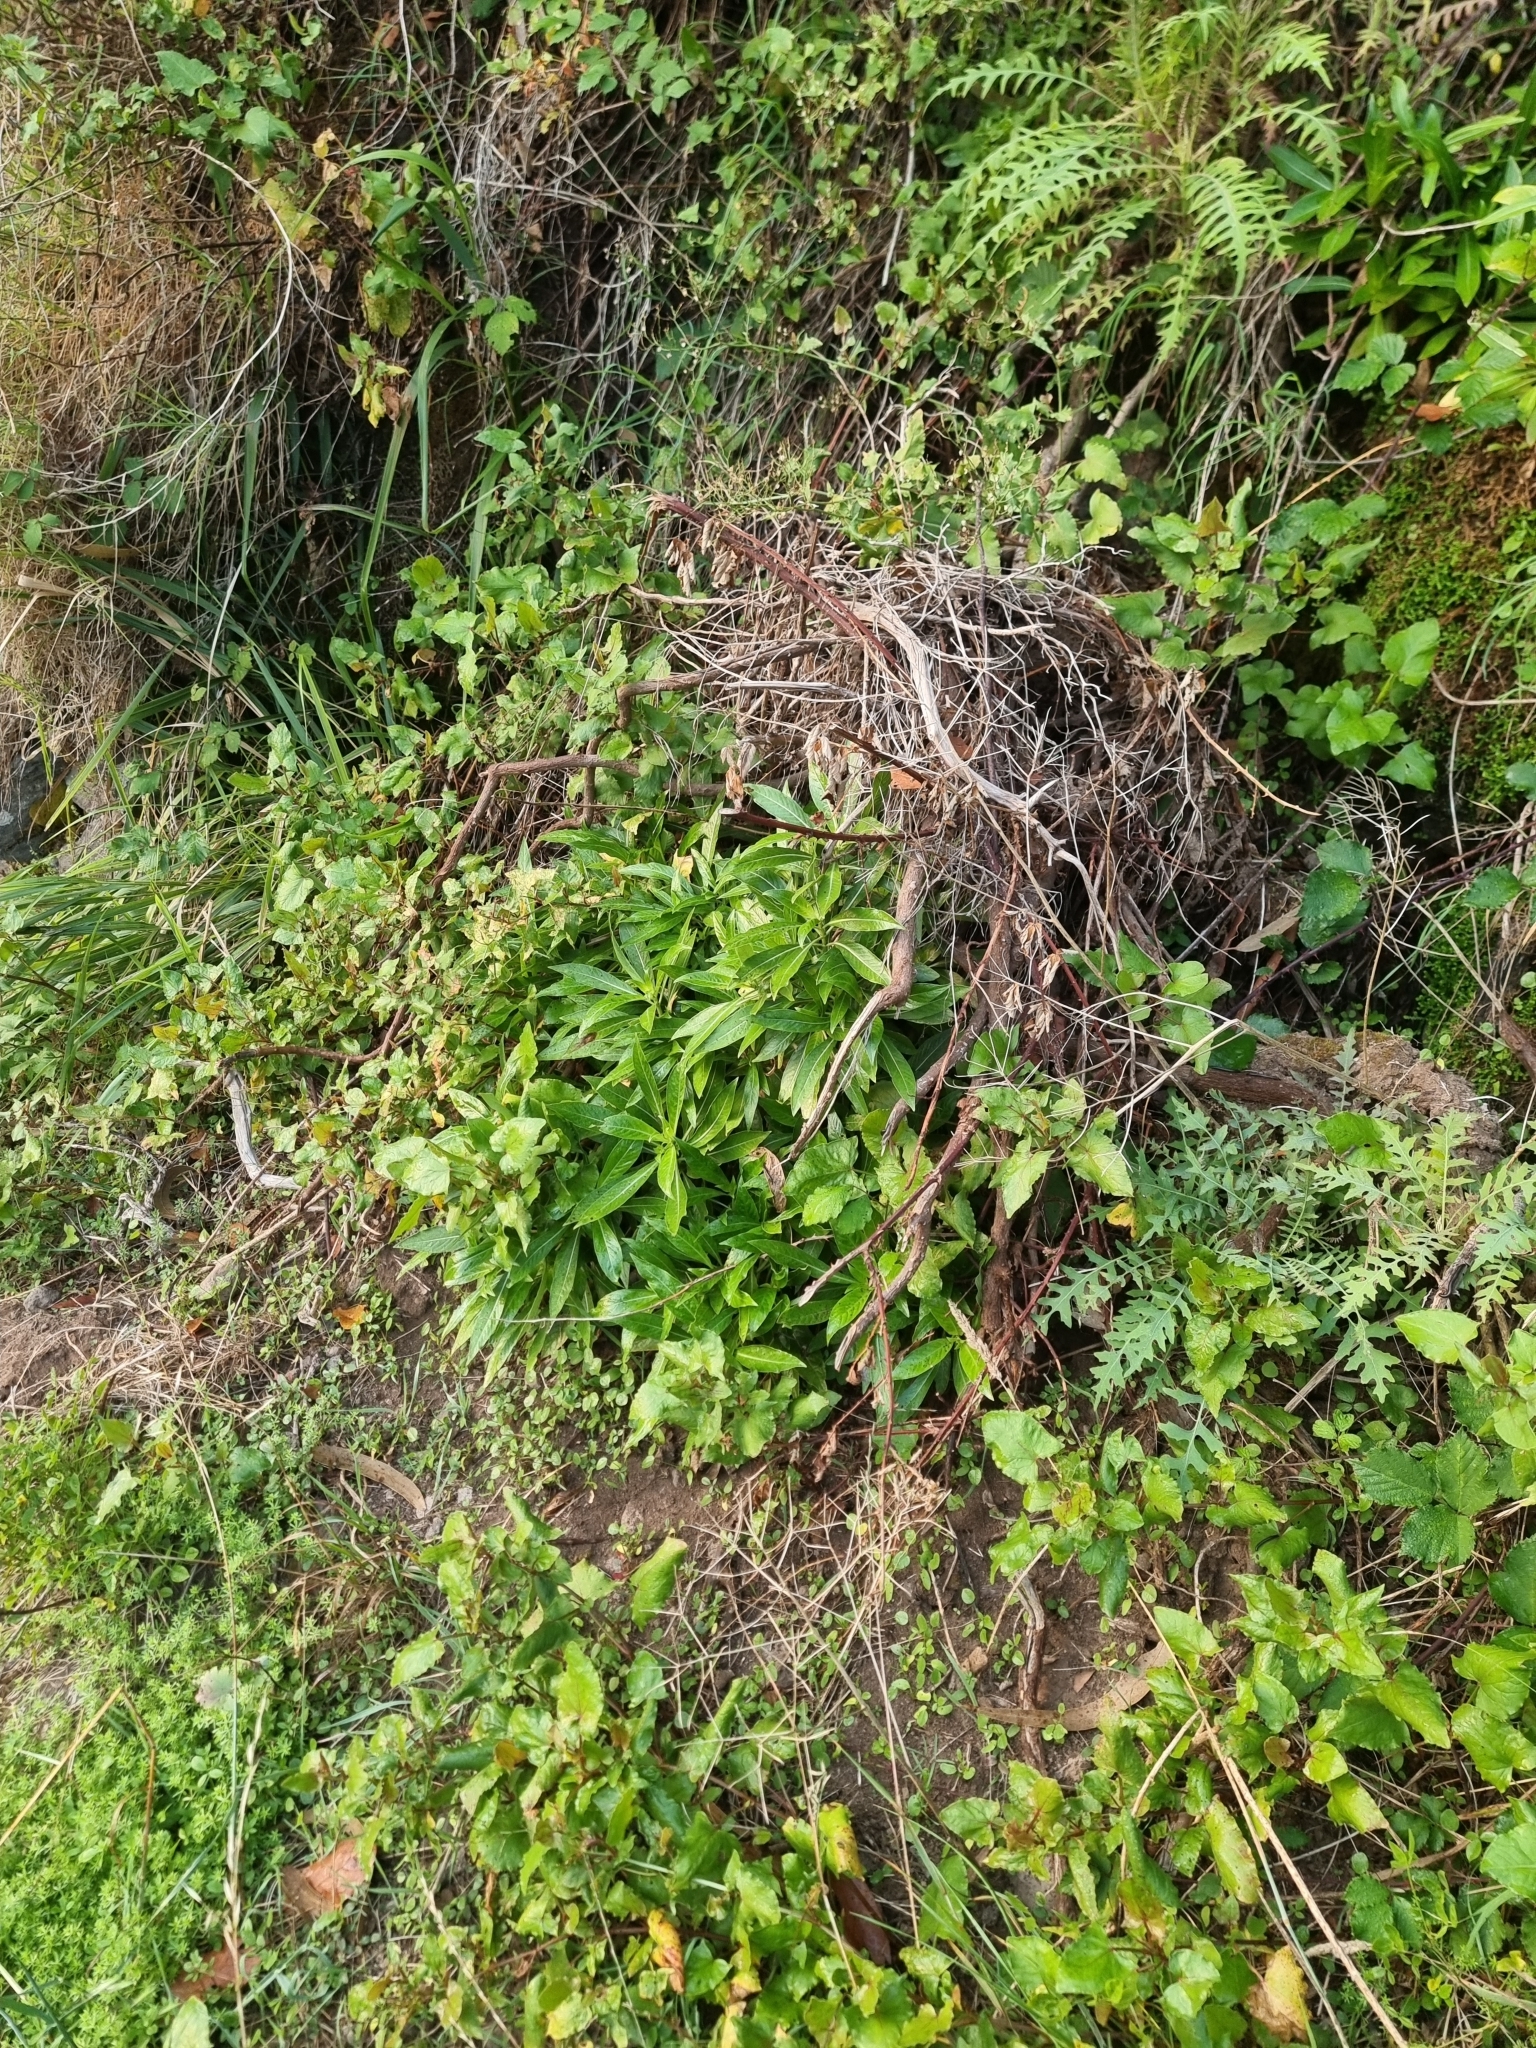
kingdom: Plantae
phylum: Tracheophyta
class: Magnoliopsida
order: Gentianales
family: Rubiaceae
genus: Phyllis
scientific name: Phyllis nobla
